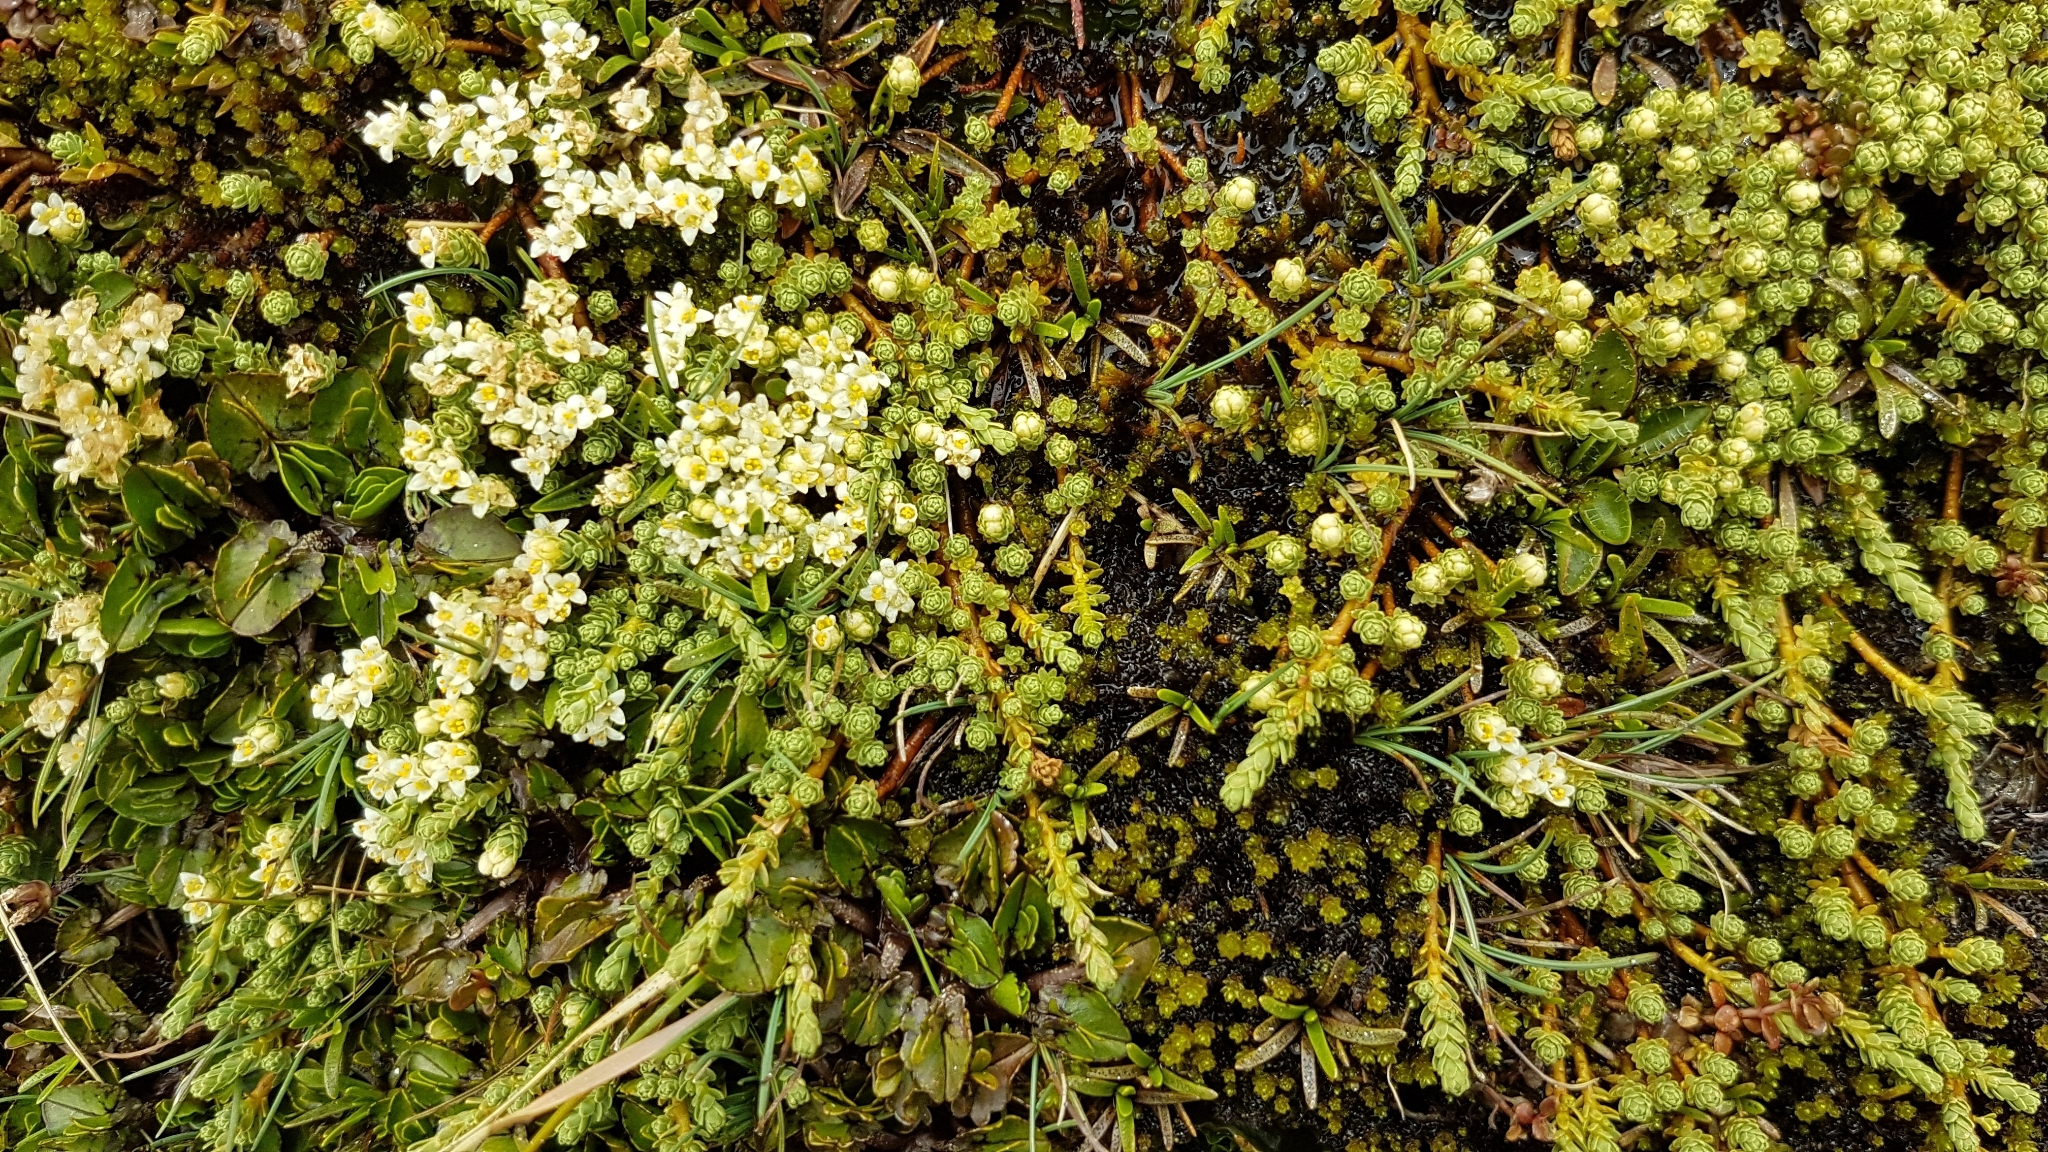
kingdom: Plantae
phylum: Tracheophyta
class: Magnoliopsida
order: Malvales
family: Thymelaeaceae
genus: Kelleria
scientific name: Kelleria paludosa
